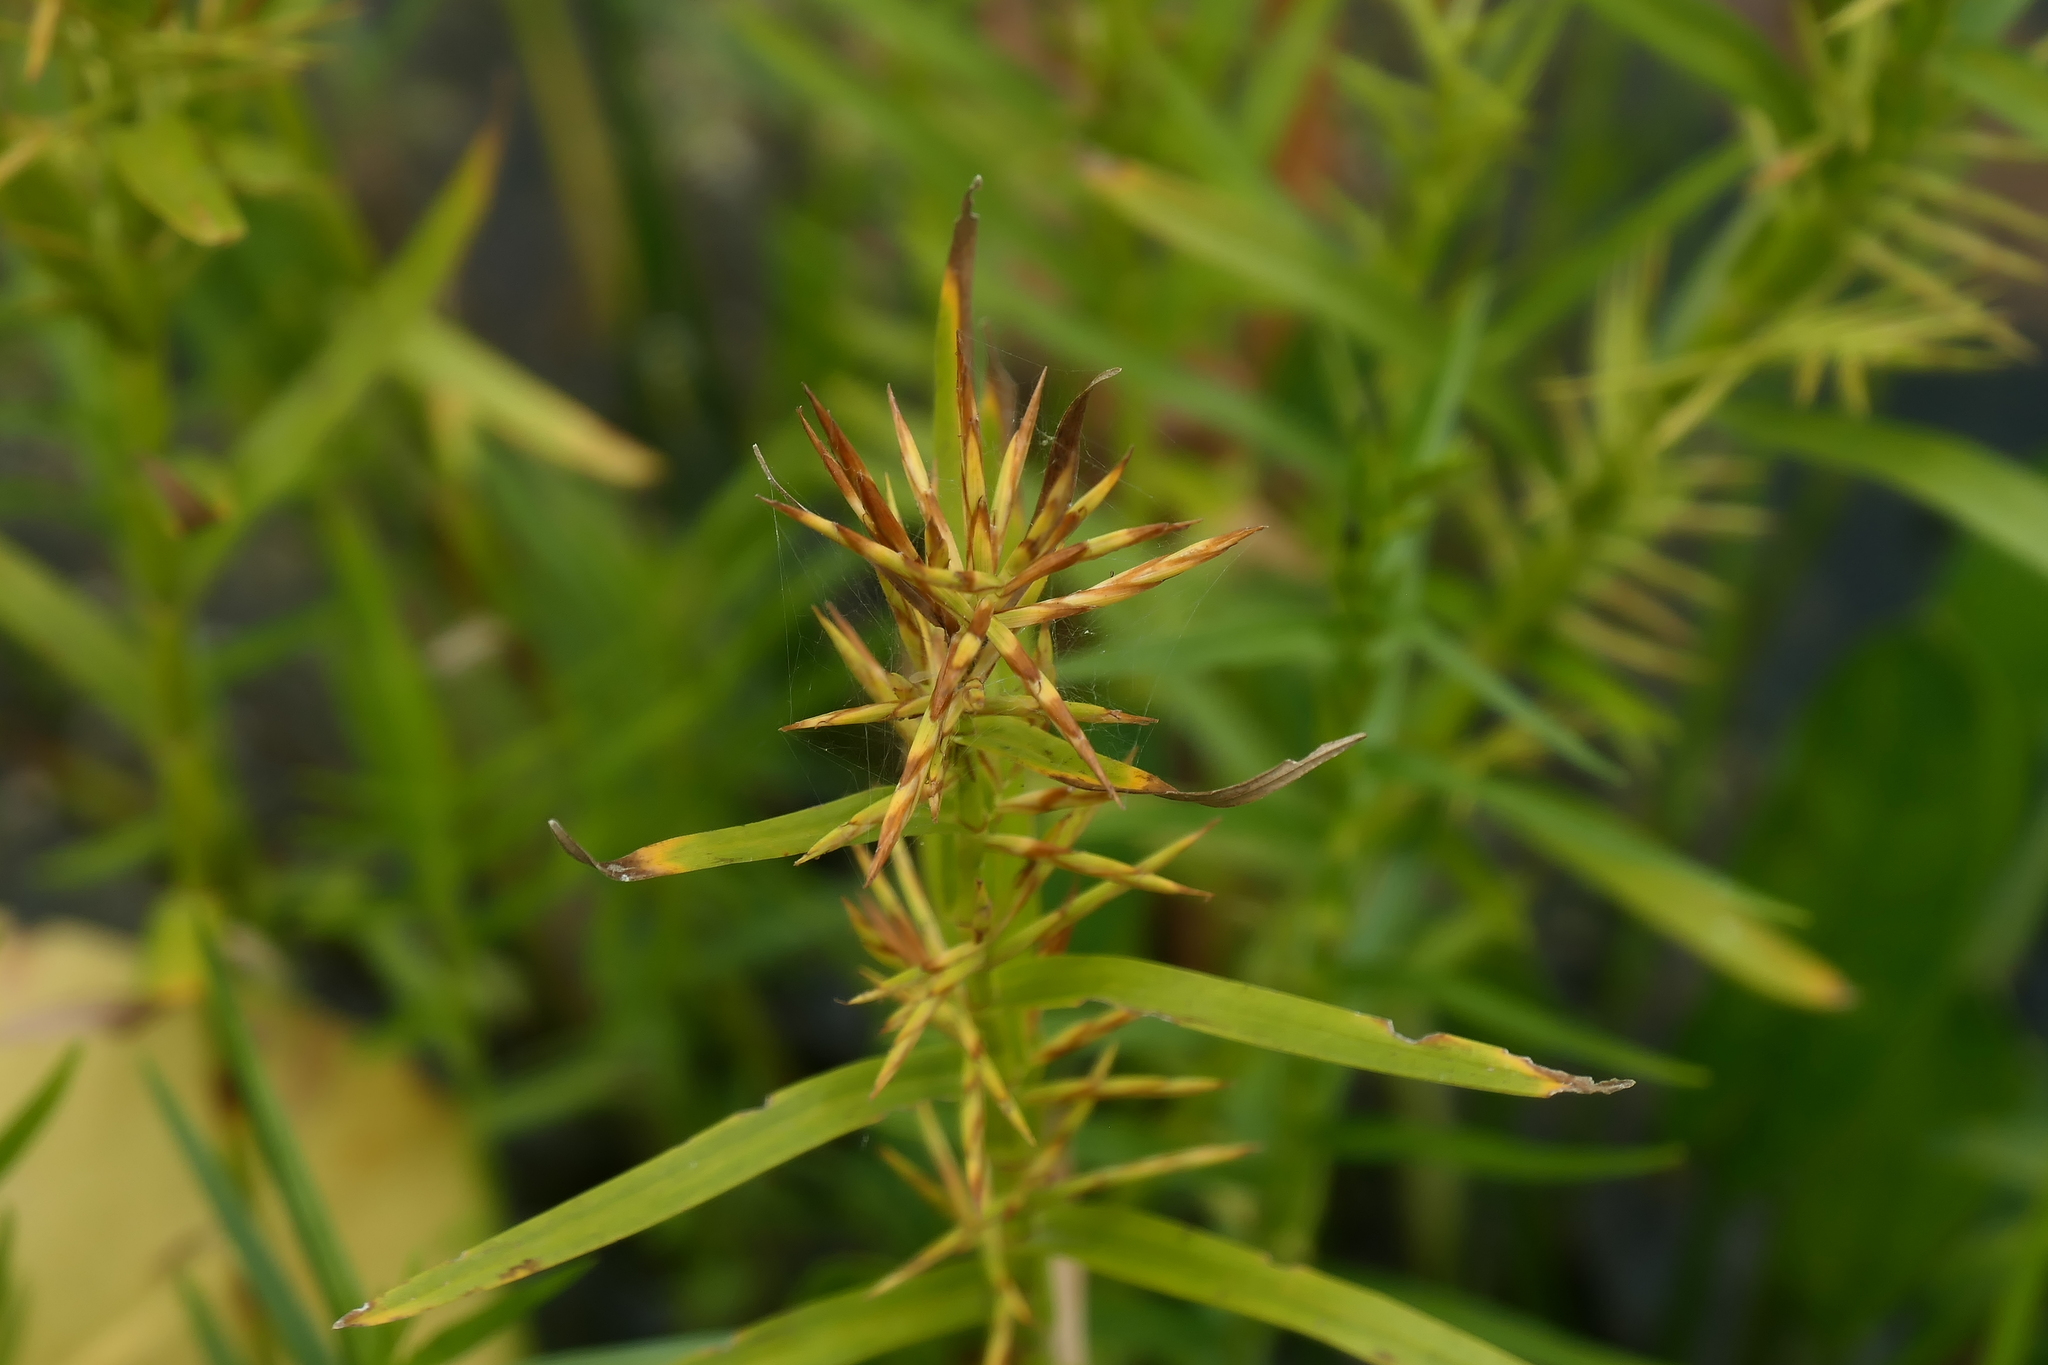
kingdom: Plantae
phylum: Tracheophyta
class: Liliopsida
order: Poales
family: Cyperaceae
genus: Dulichium
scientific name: Dulichium arundinaceum
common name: Three-way sedge
